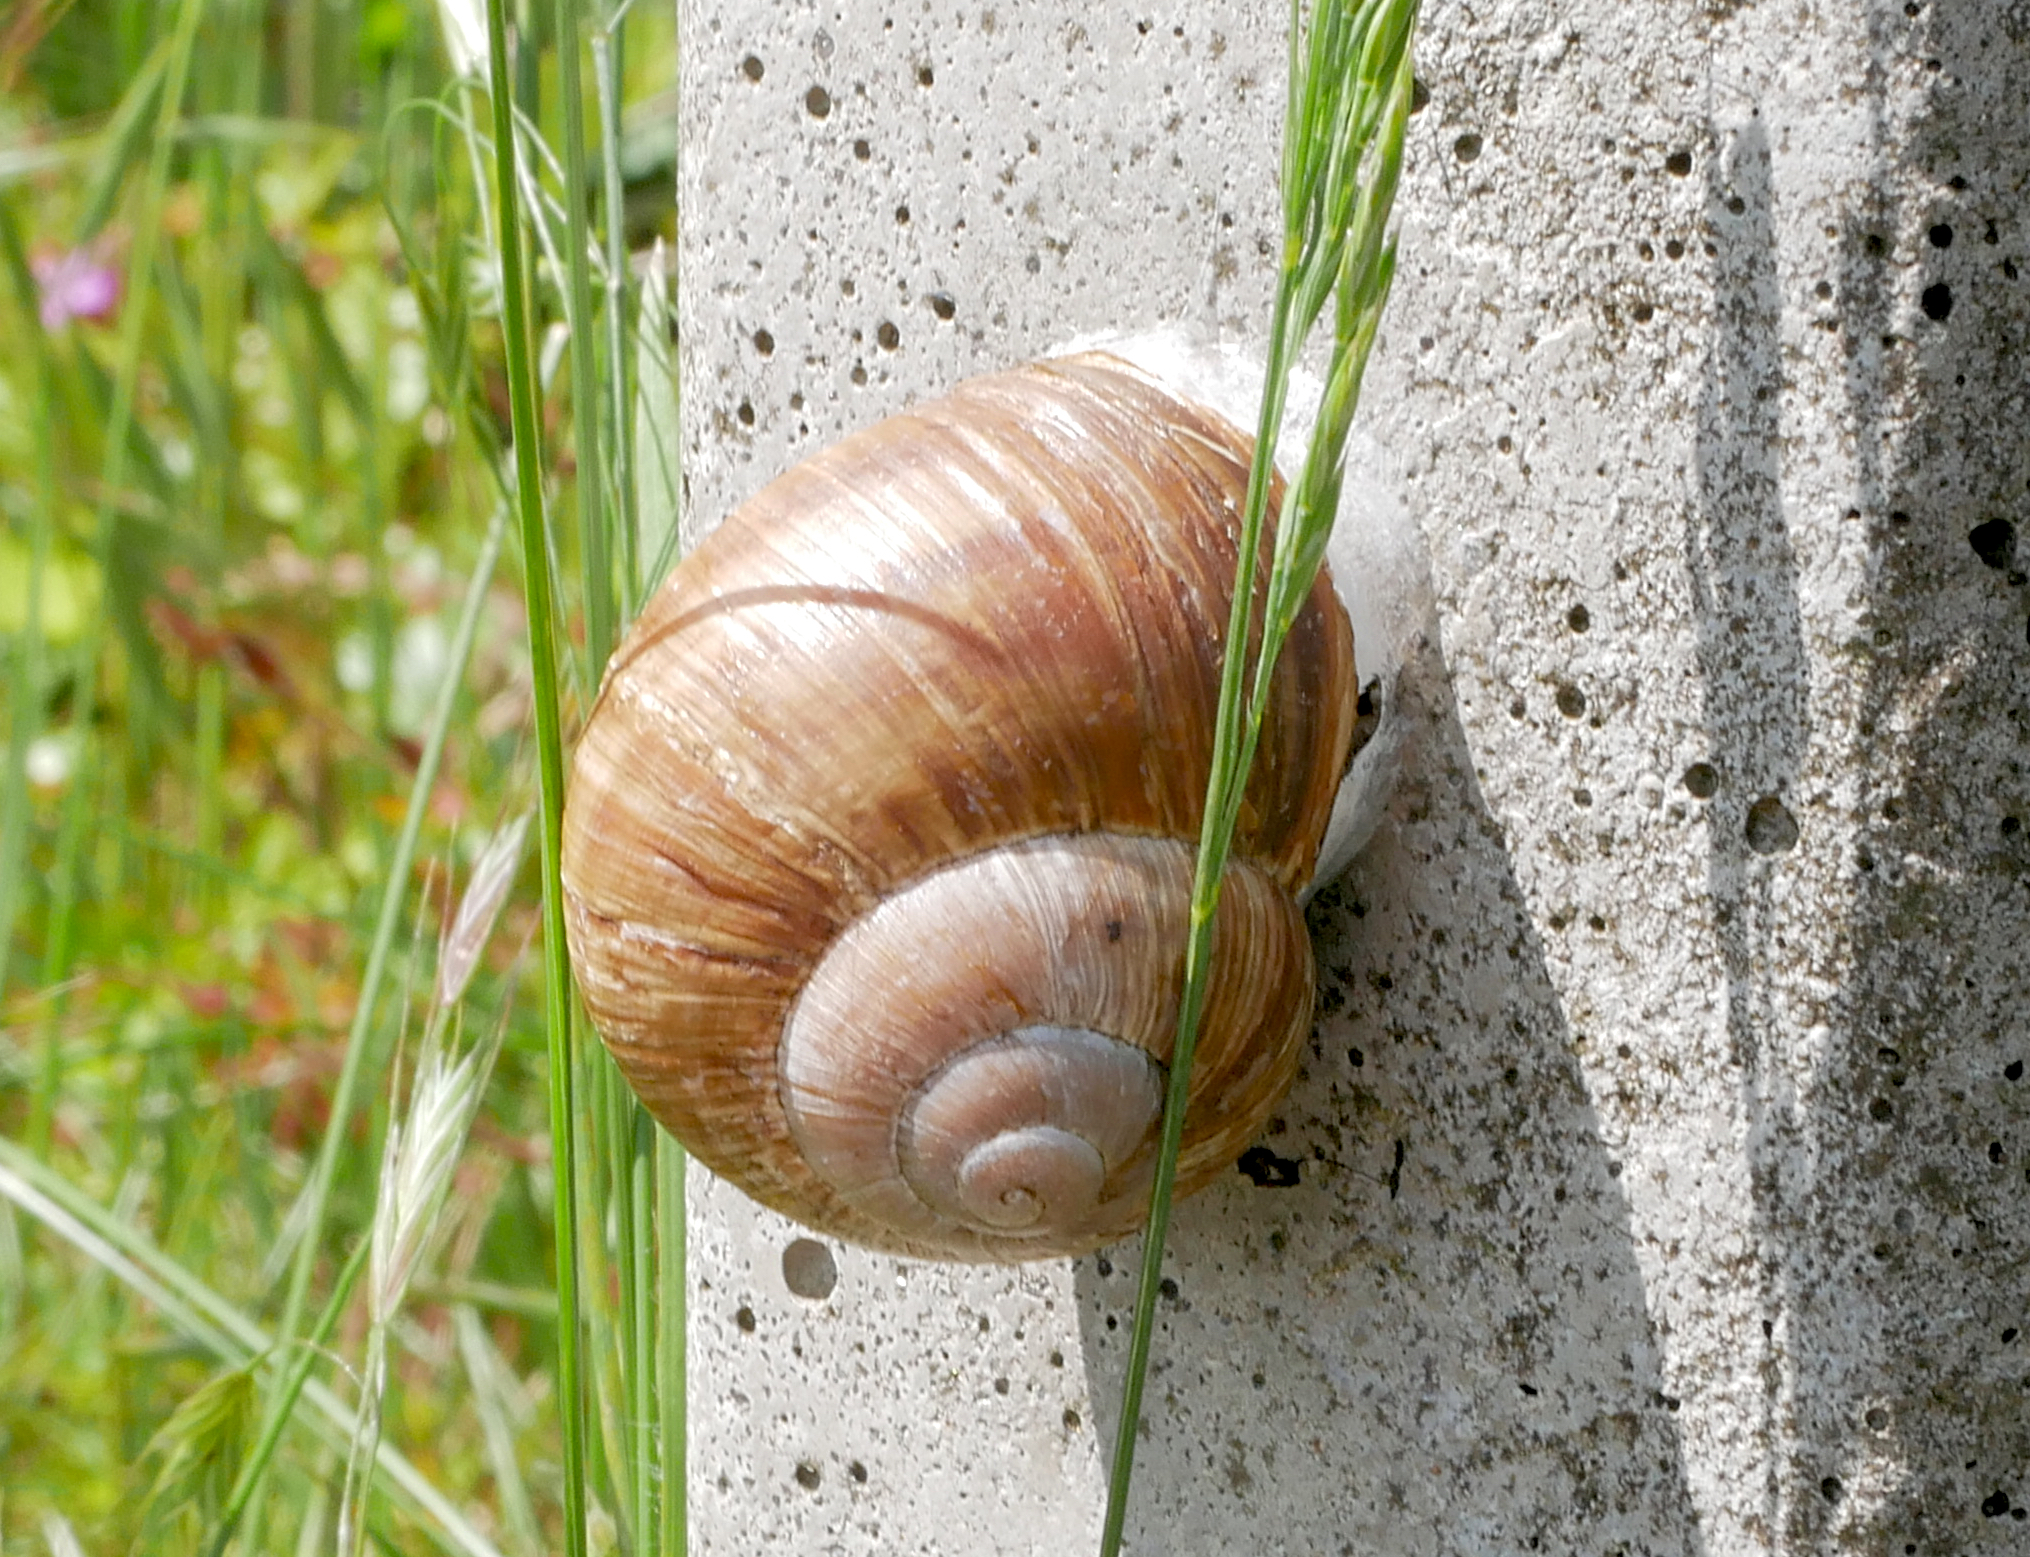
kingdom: Animalia
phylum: Mollusca
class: Gastropoda
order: Stylommatophora
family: Helicidae
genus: Helix
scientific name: Helix pomatia
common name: Roman snail
